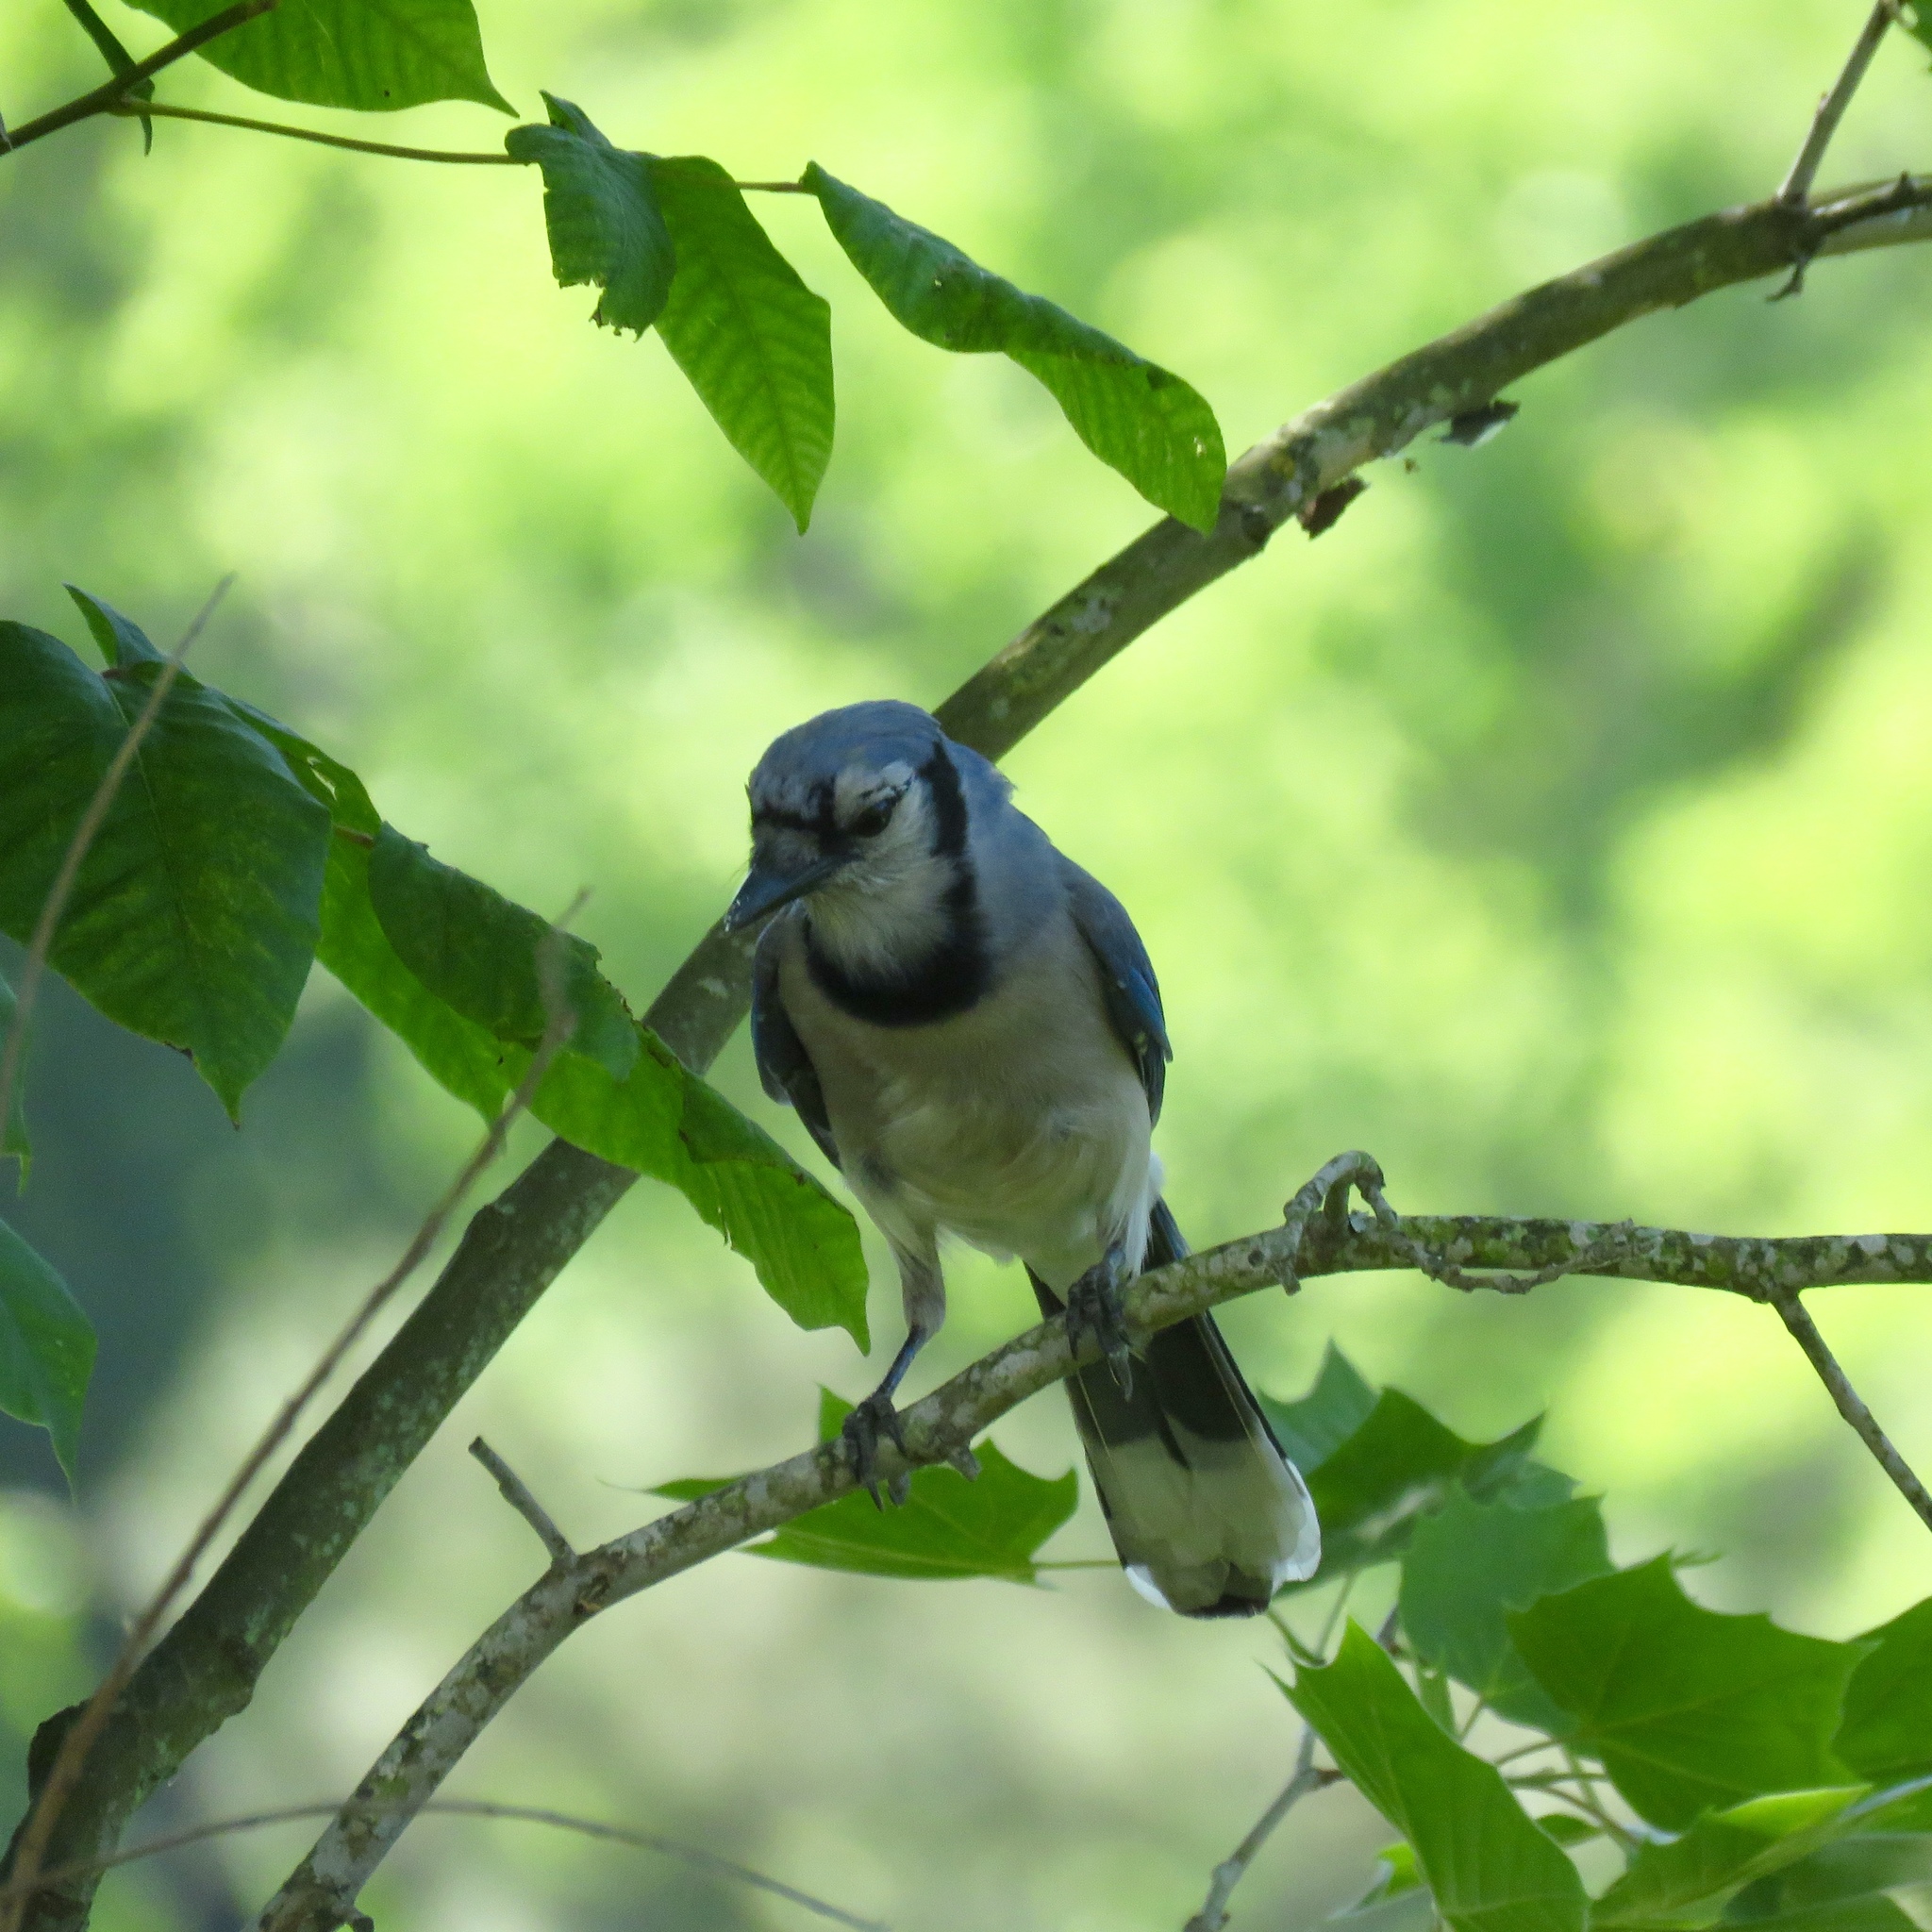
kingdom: Animalia
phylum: Chordata
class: Aves
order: Passeriformes
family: Corvidae
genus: Cyanocitta
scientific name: Cyanocitta cristata
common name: Blue jay
